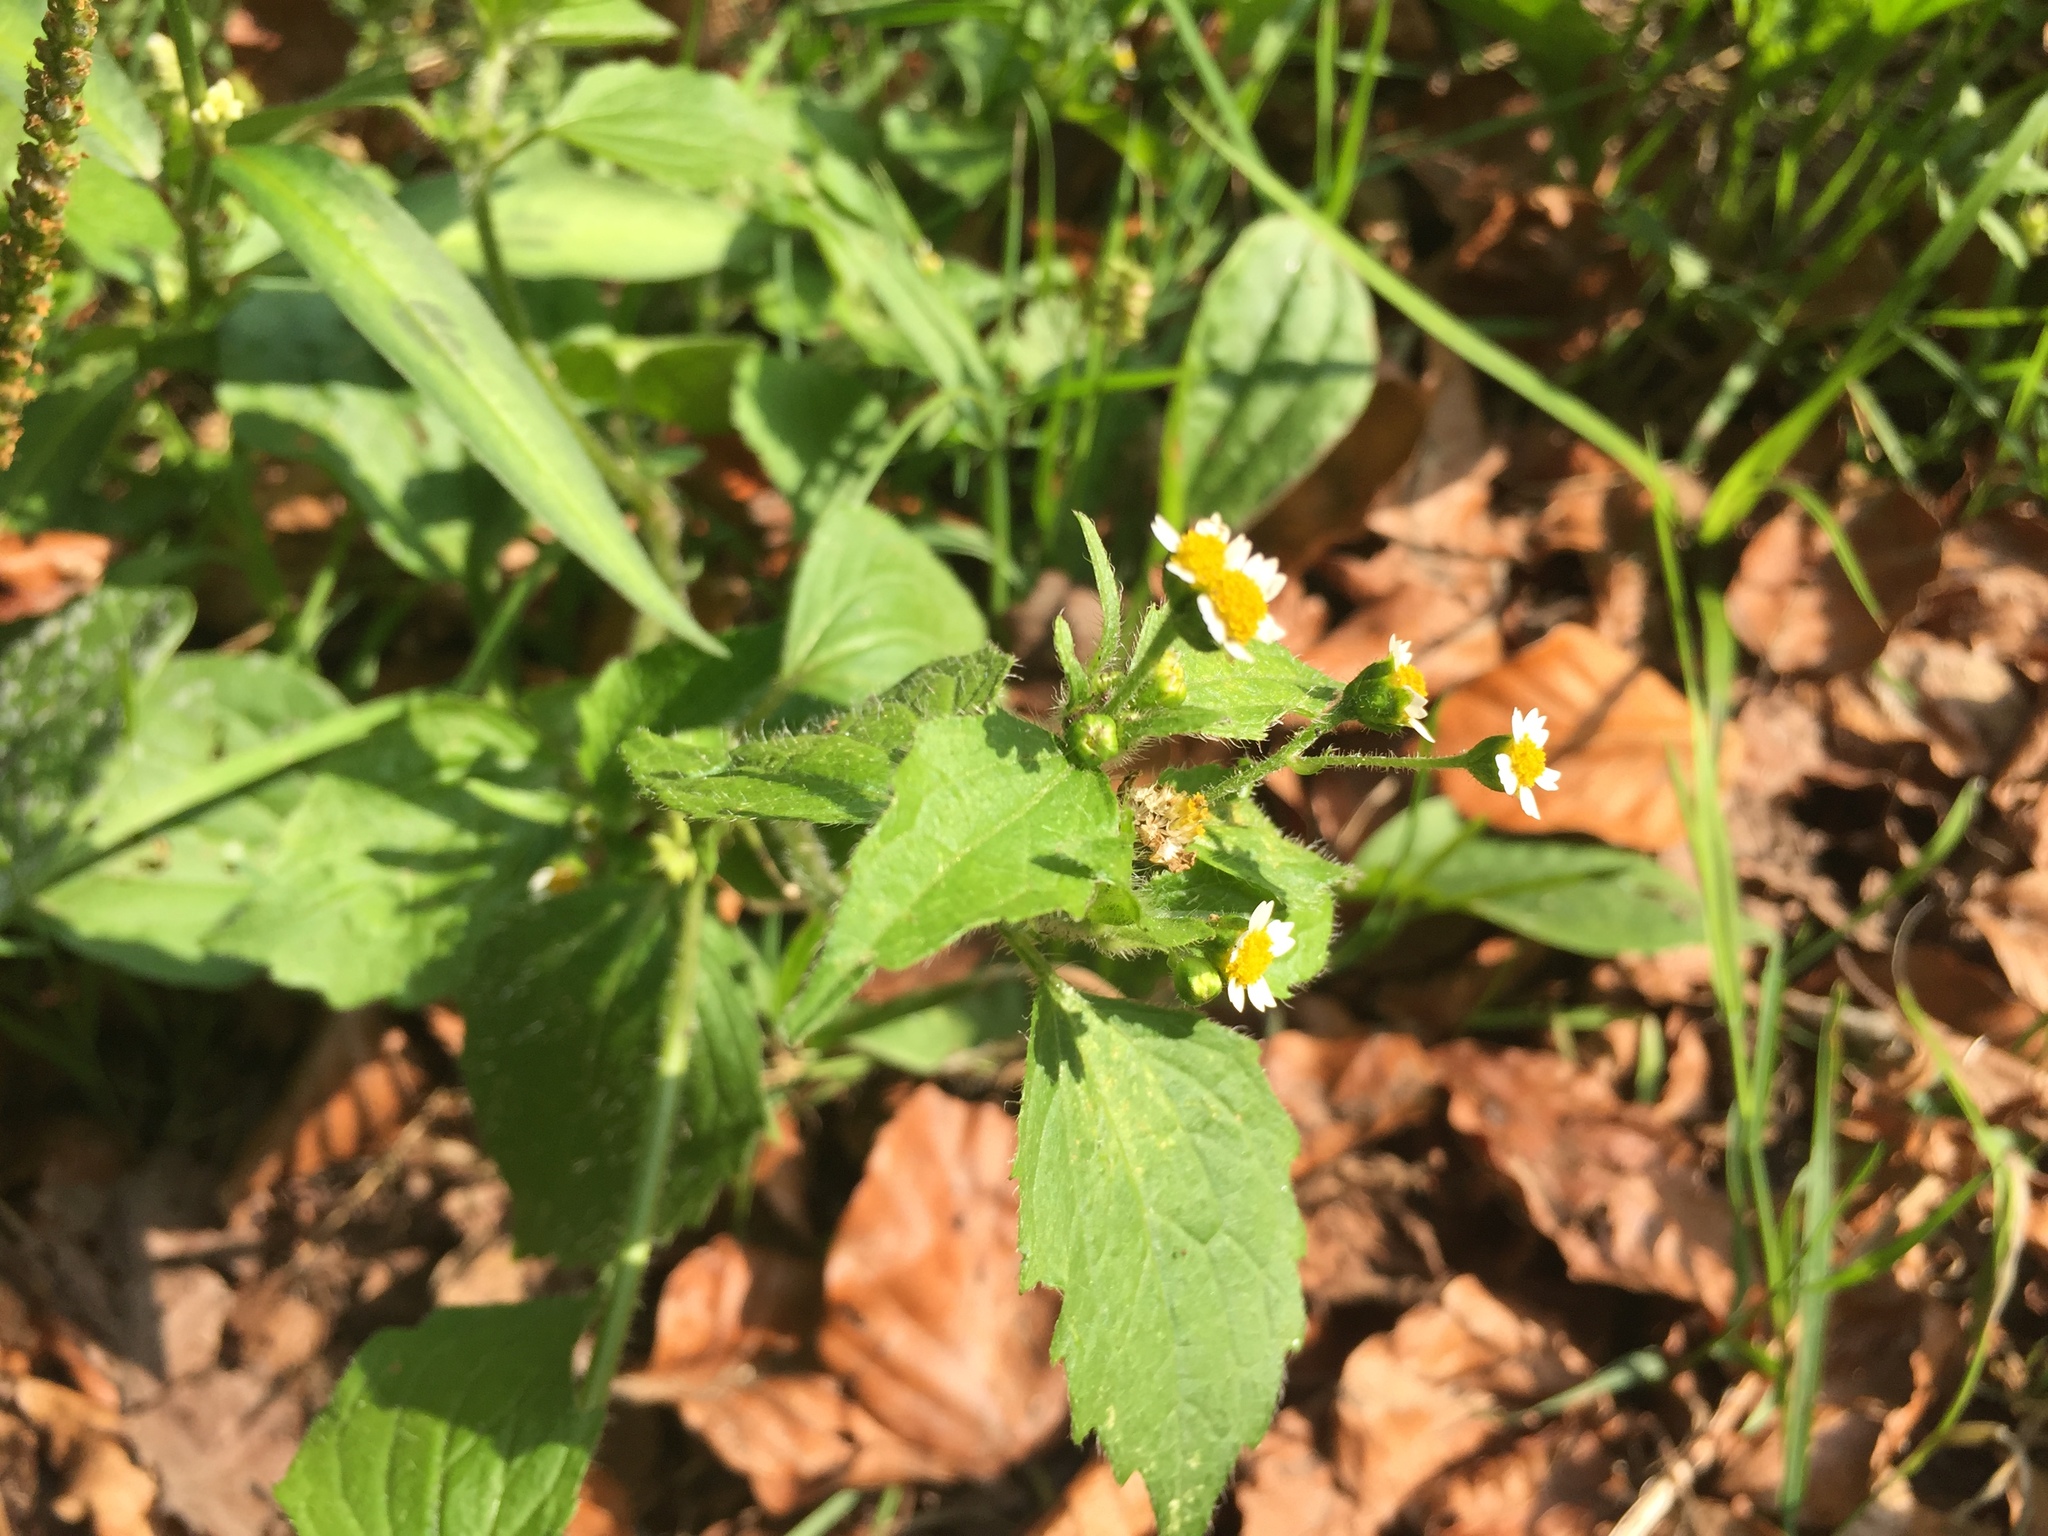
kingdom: Plantae
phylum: Tracheophyta
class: Magnoliopsida
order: Asterales
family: Asteraceae
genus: Galinsoga
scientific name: Galinsoga quadriradiata
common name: Shaggy soldier
